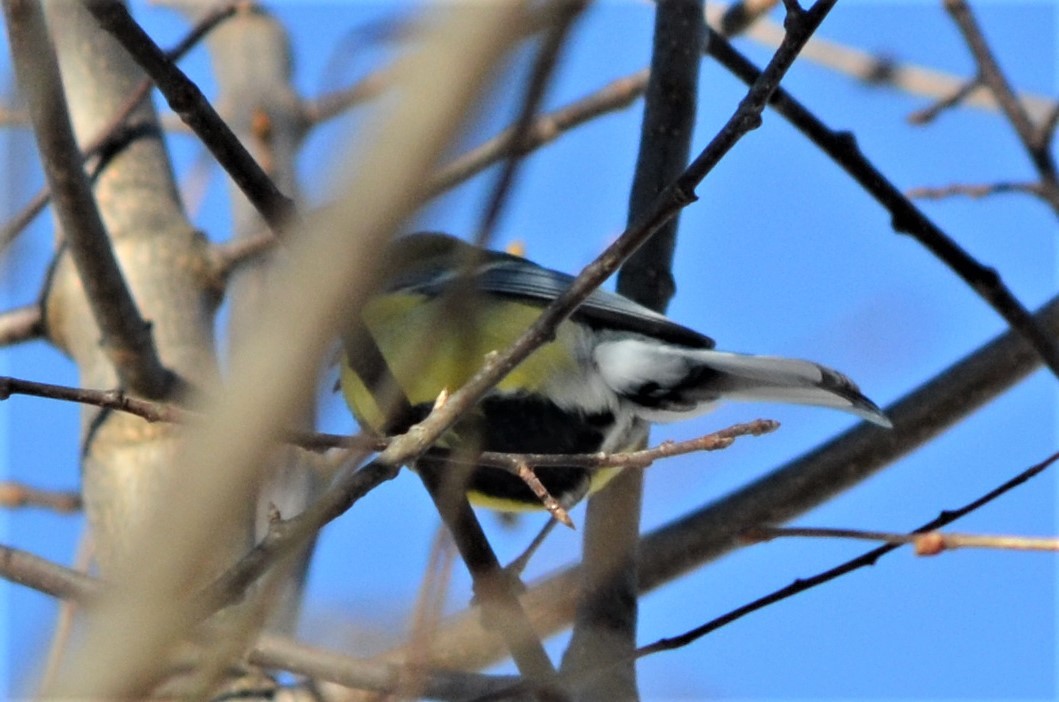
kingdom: Animalia
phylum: Chordata
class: Aves
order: Passeriformes
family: Paridae
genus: Parus
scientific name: Parus major
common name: Great tit
